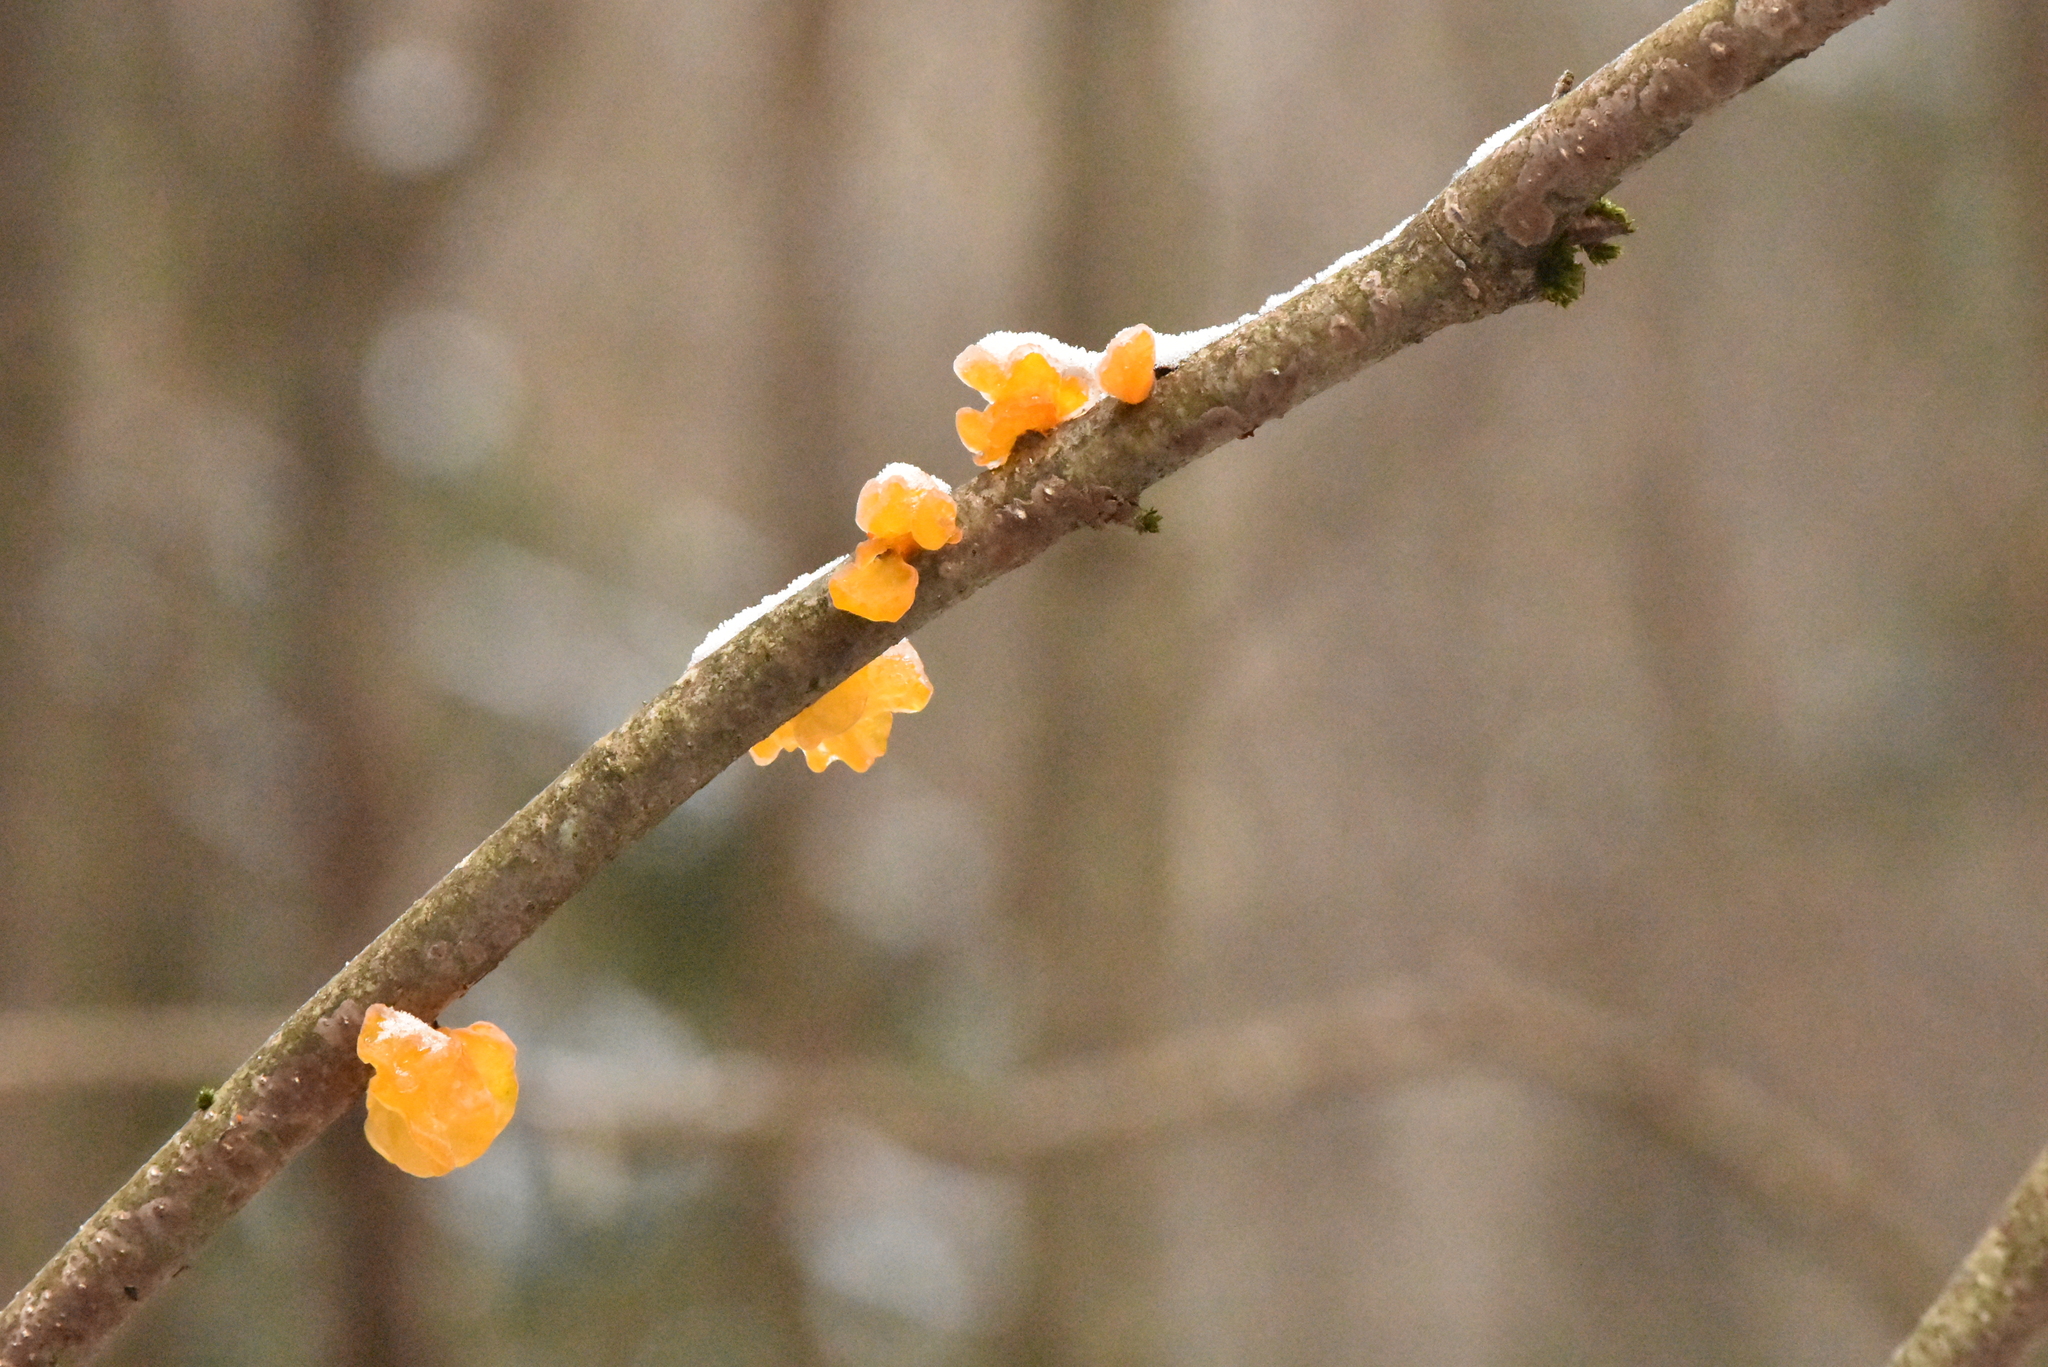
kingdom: Fungi
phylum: Basidiomycota
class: Tremellomycetes
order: Tremellales
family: Tremellaceae
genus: Tremella
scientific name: Tremella mesenterica
